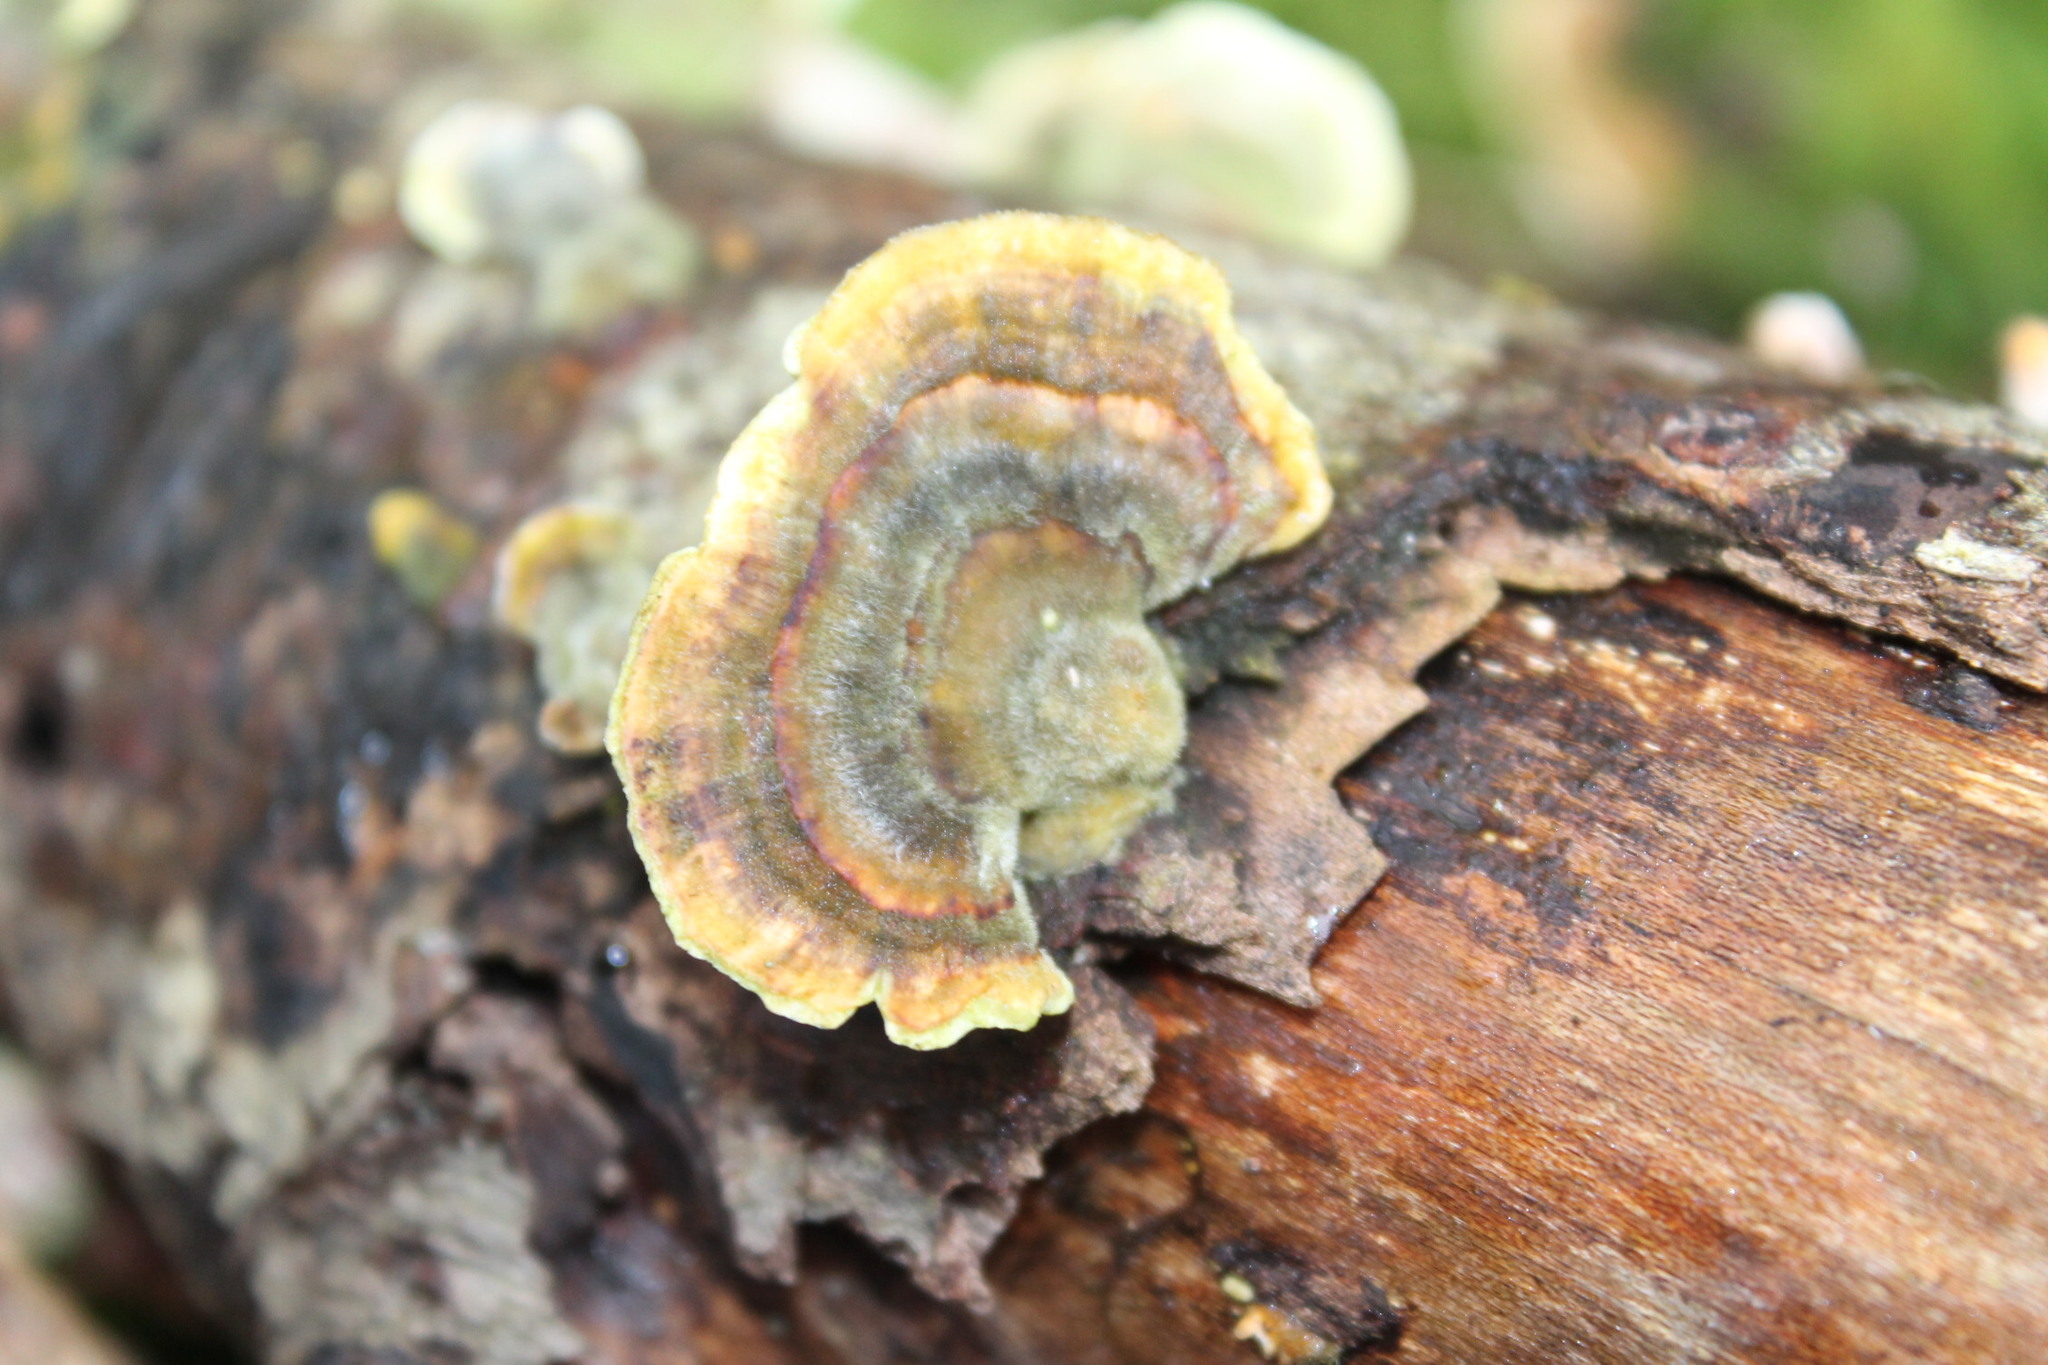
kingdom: Fungi
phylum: Basidiomycota
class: Agaricomycetes
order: Polyporales
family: Polyporaceae
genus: Trametes
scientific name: Trametes versicolor
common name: Turkeytail
